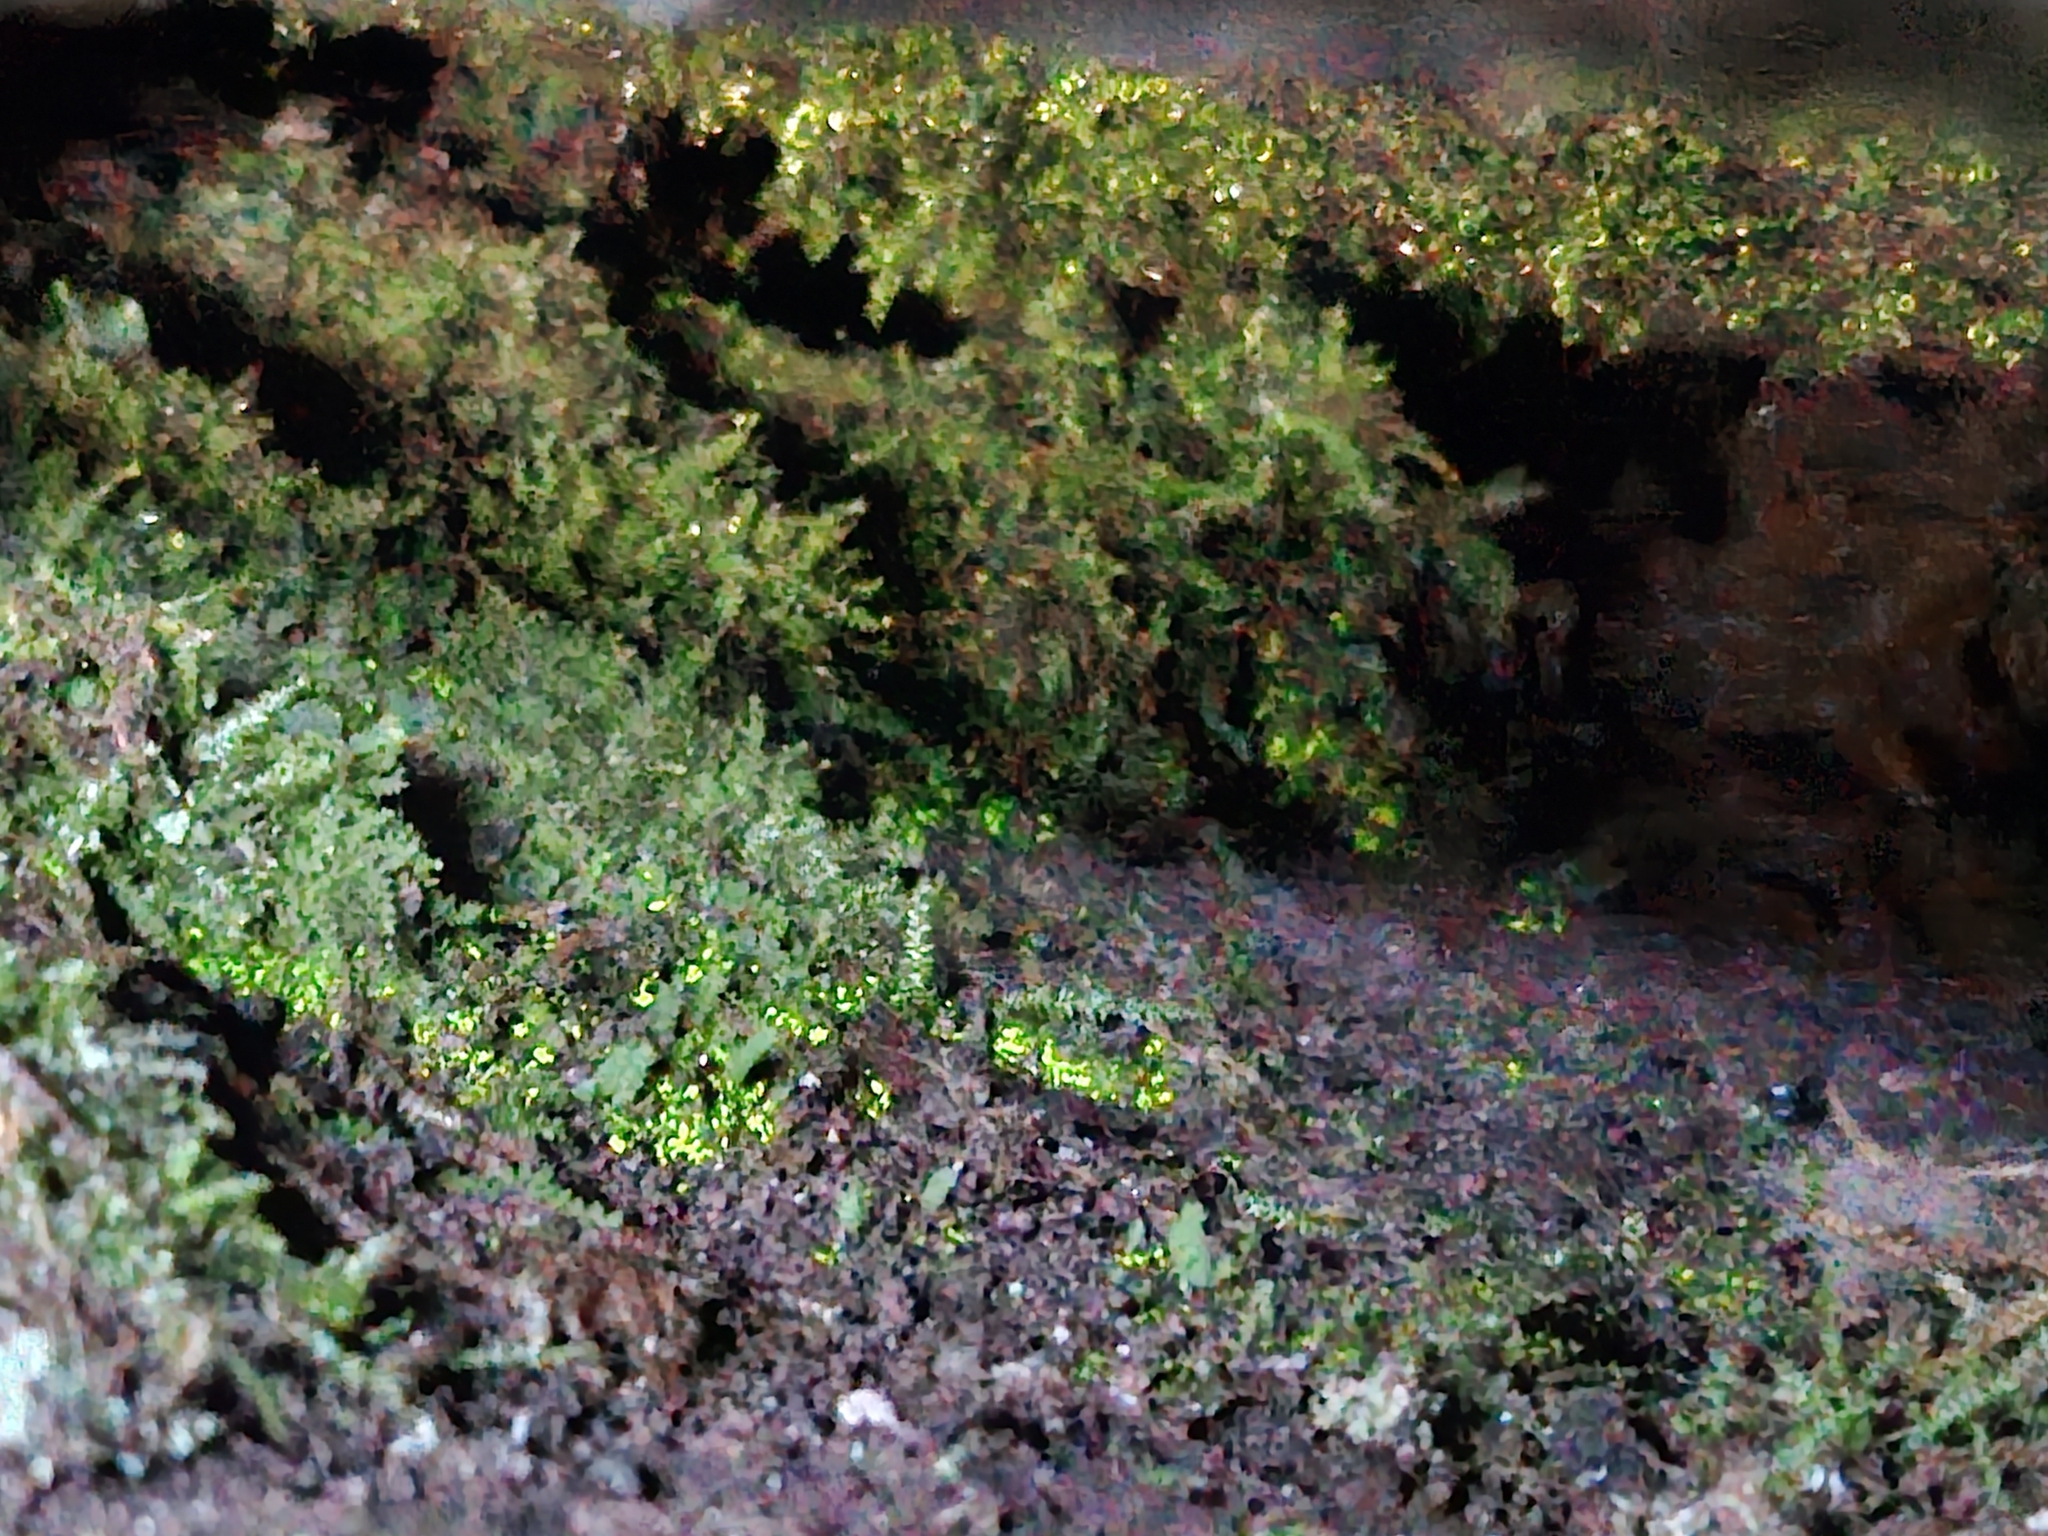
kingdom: Plantae
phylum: Bryophyta
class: Bryopsida
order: Dicranales
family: Schistostegaceae
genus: Schistostega
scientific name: Schistostega pennata
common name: Luminous moss
